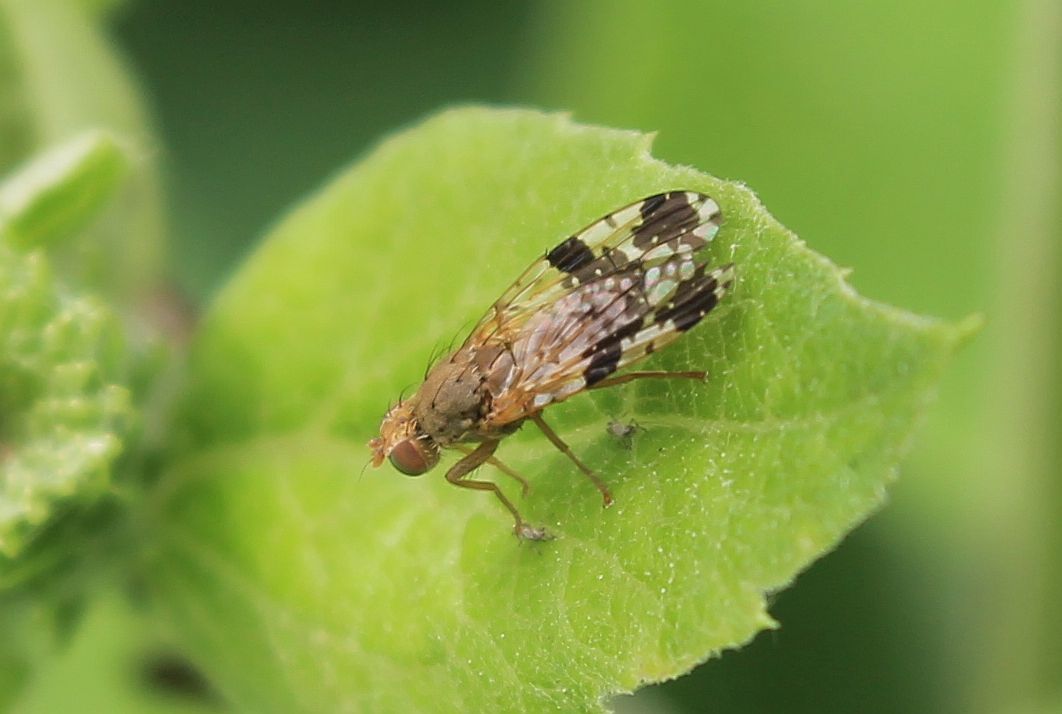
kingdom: Animalia
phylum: Arthropoda
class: Insecta
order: Diptera
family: Tephritidae
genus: Tephritis
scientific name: Tephritis bardanae
